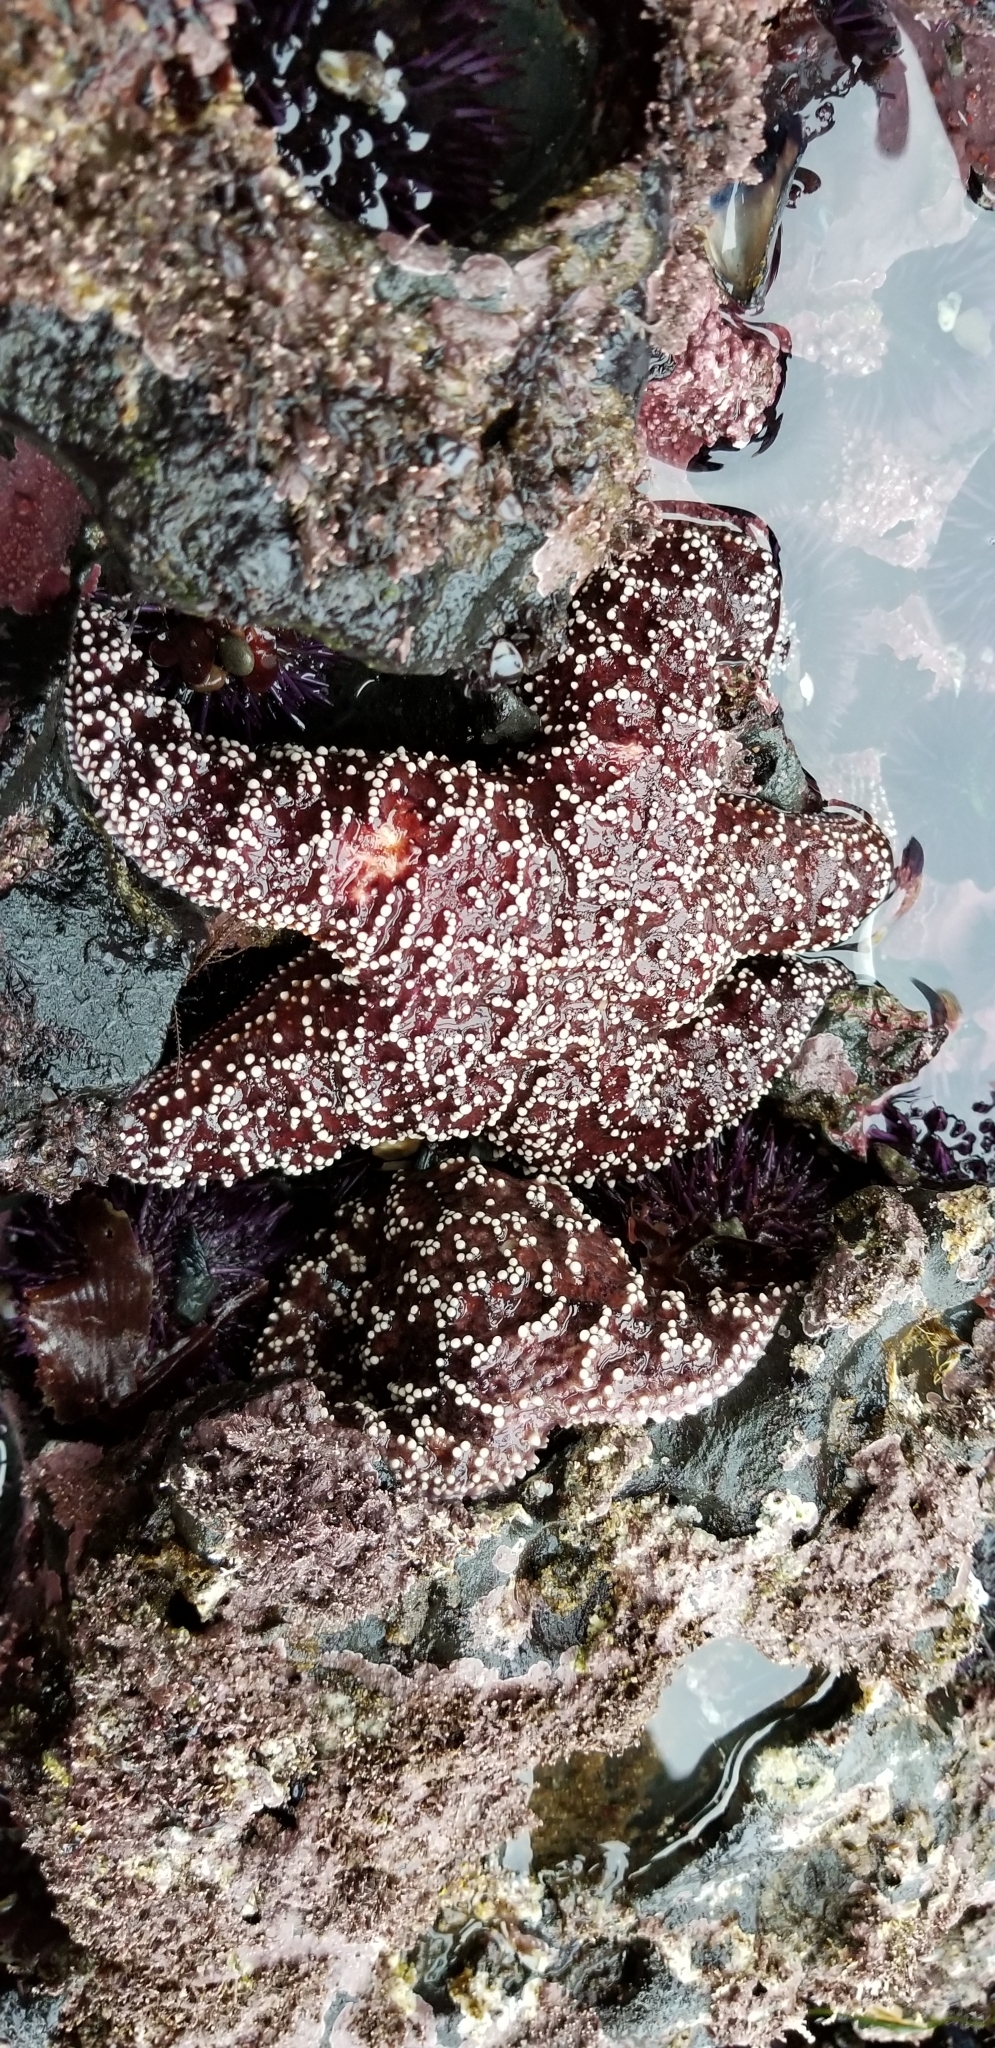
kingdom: Animalia
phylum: Echinodermata
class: Asteroidea
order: Forcipulatida
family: Asteriidae
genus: Pisaster
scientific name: Pisaster ochraceus
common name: Ochre stars
